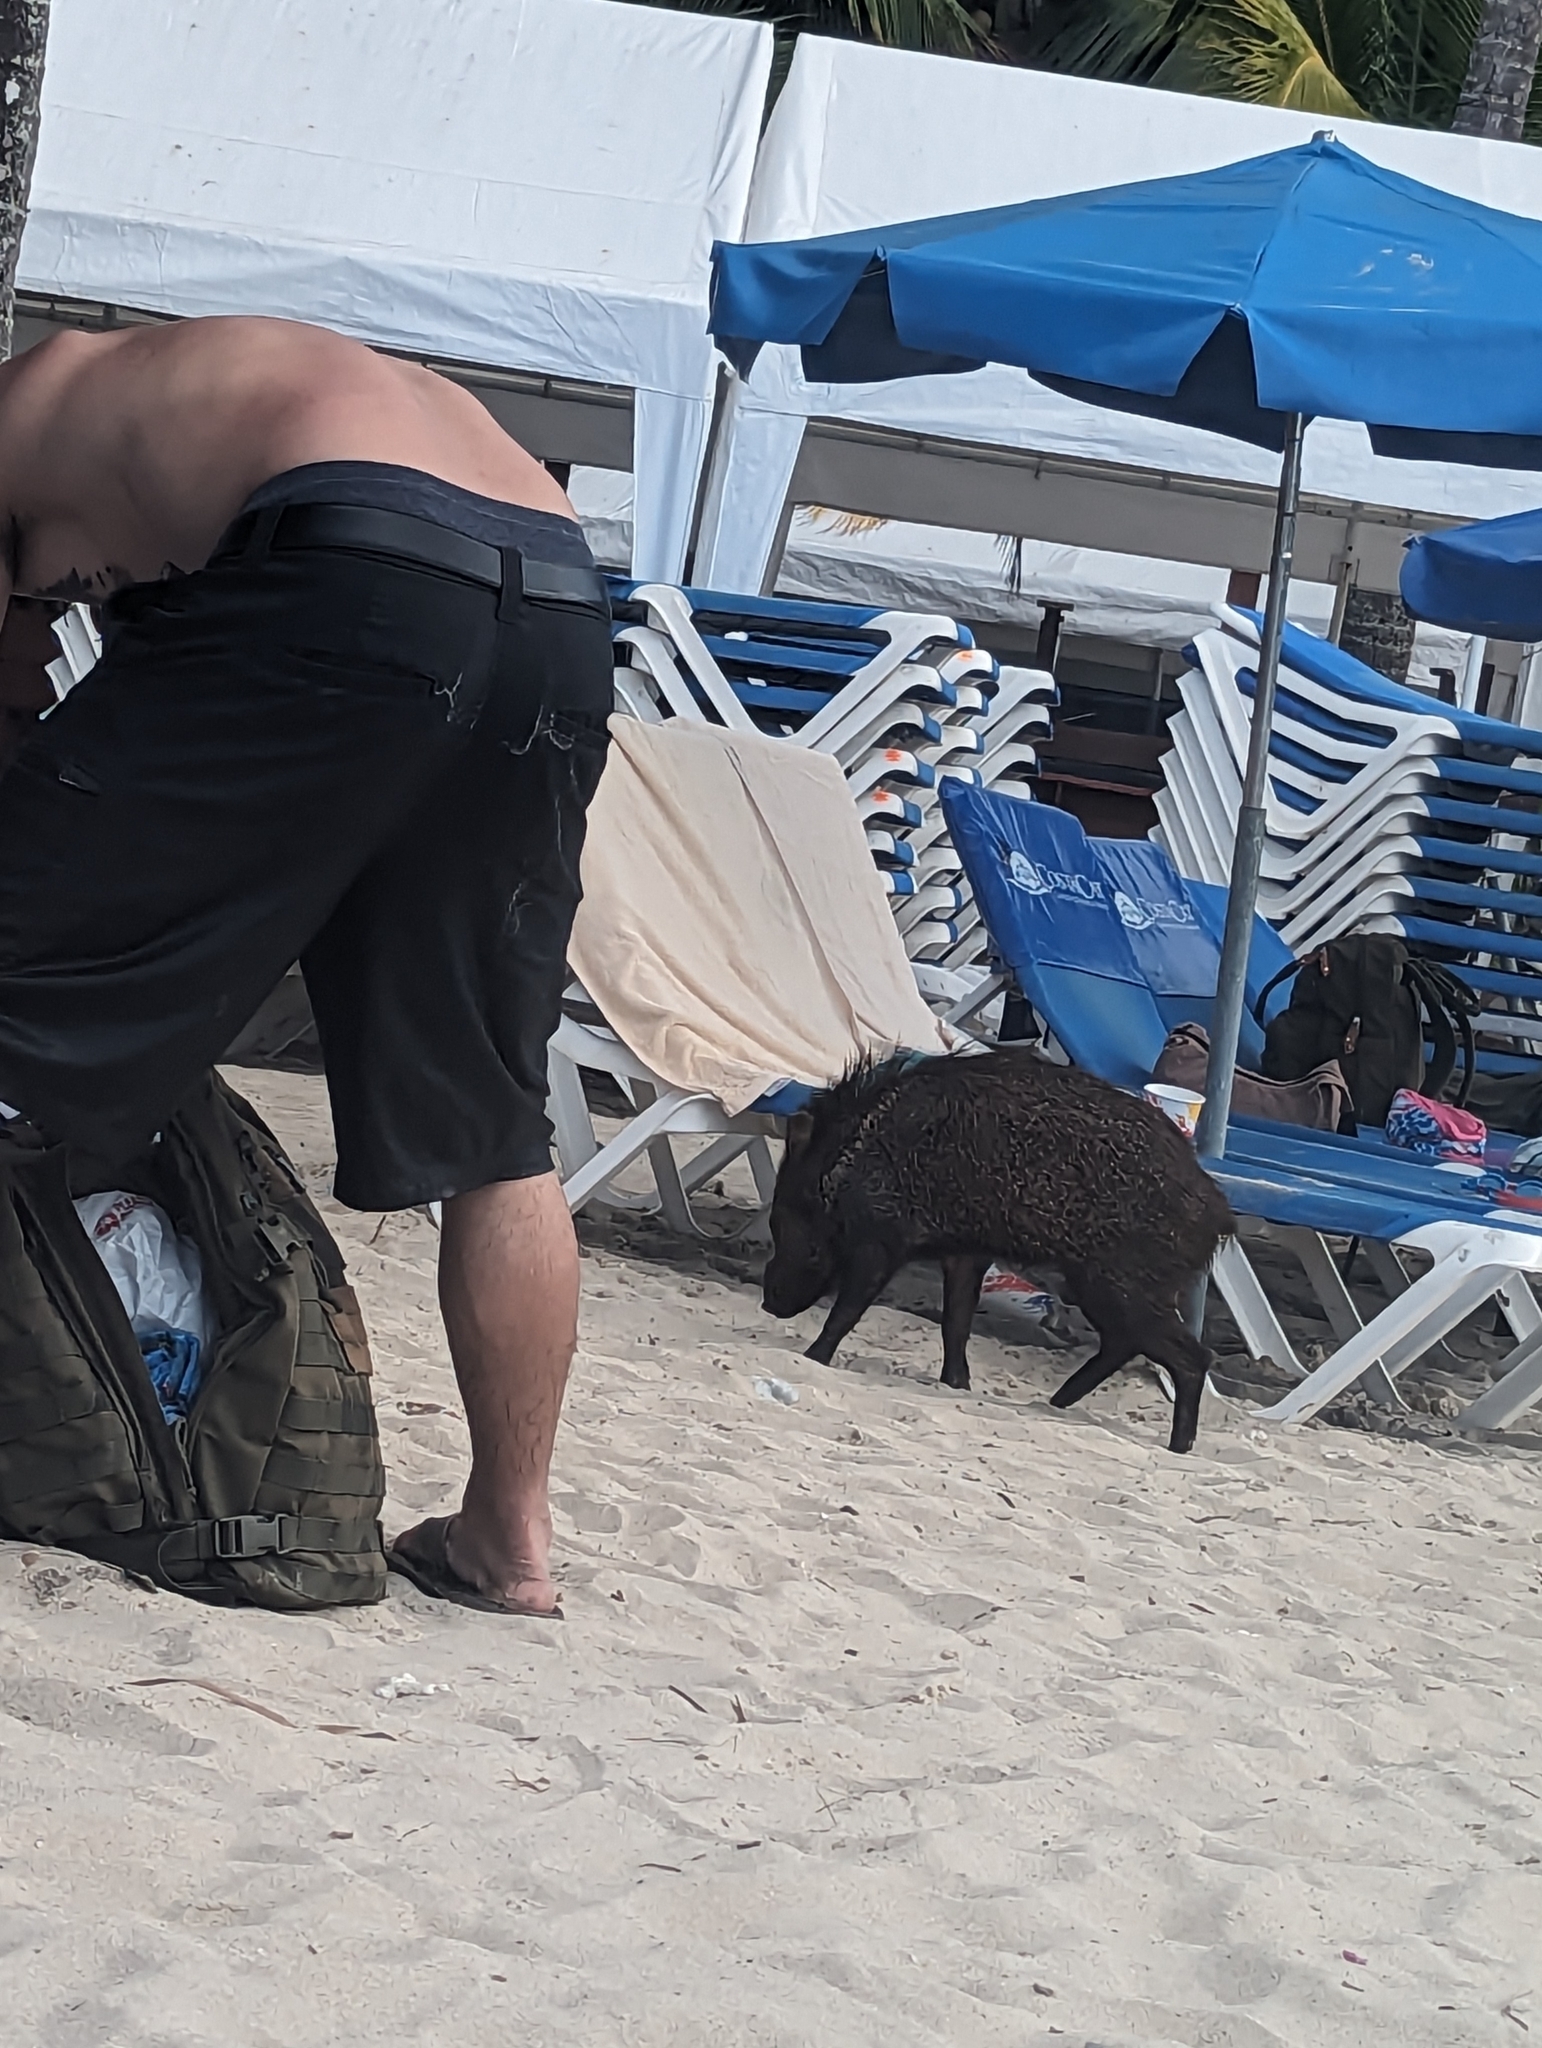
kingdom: Animalia
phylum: Chordata
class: Mammalia
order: Artiodactyla
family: Tayassuidae
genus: Pecari
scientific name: Pecari tajacu
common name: Collared peccary
